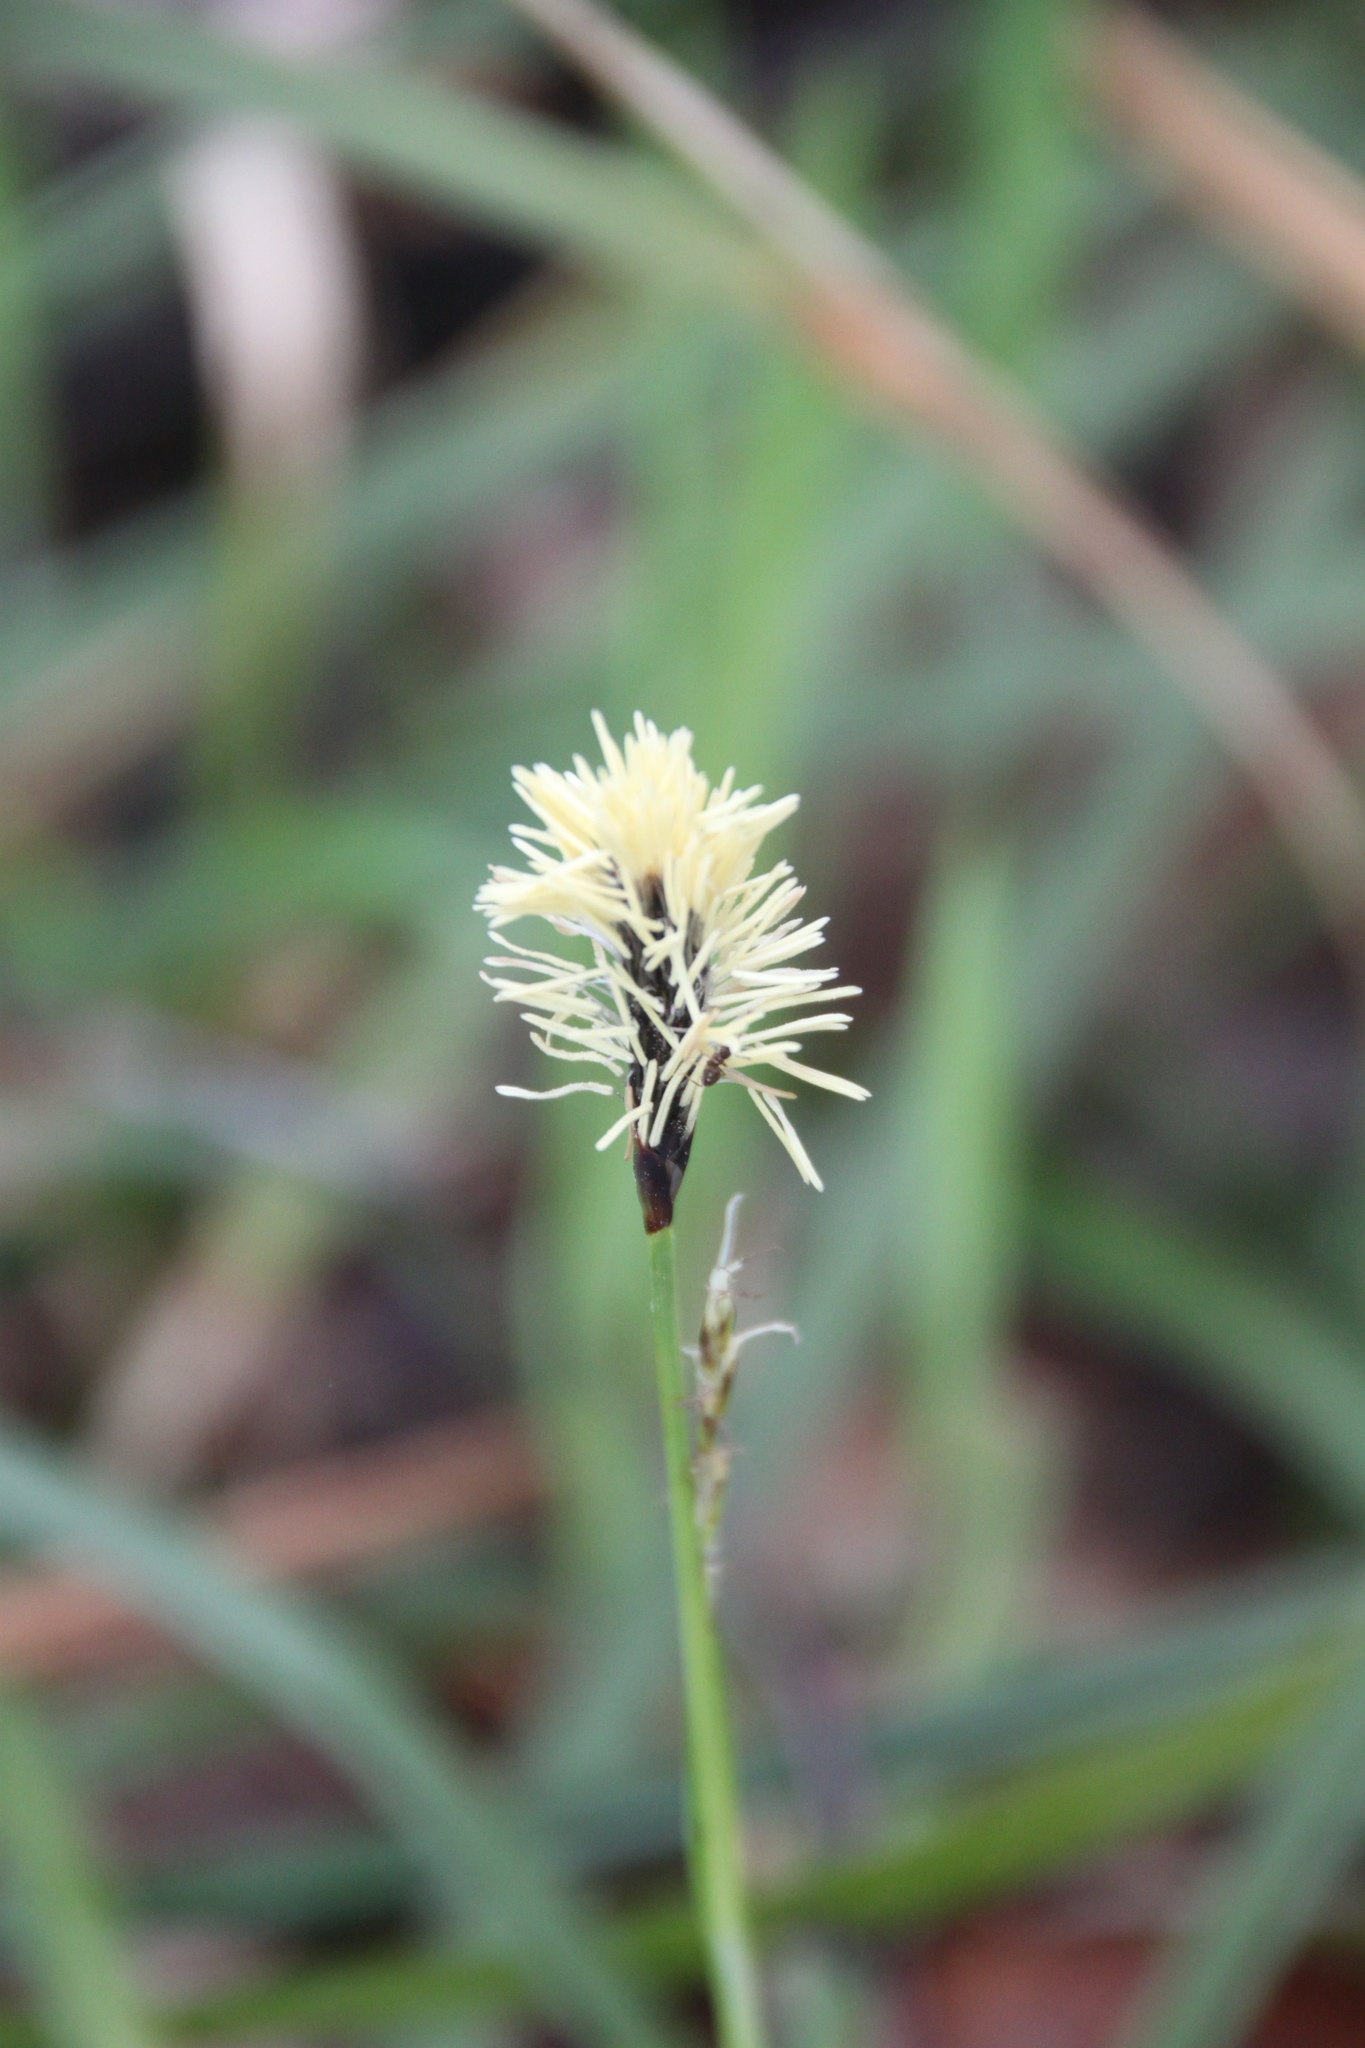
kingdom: Plantae
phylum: Tracheophyta
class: Liliopsida
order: Poales
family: Cyperaceae
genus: Carex
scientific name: Carex pilosa
